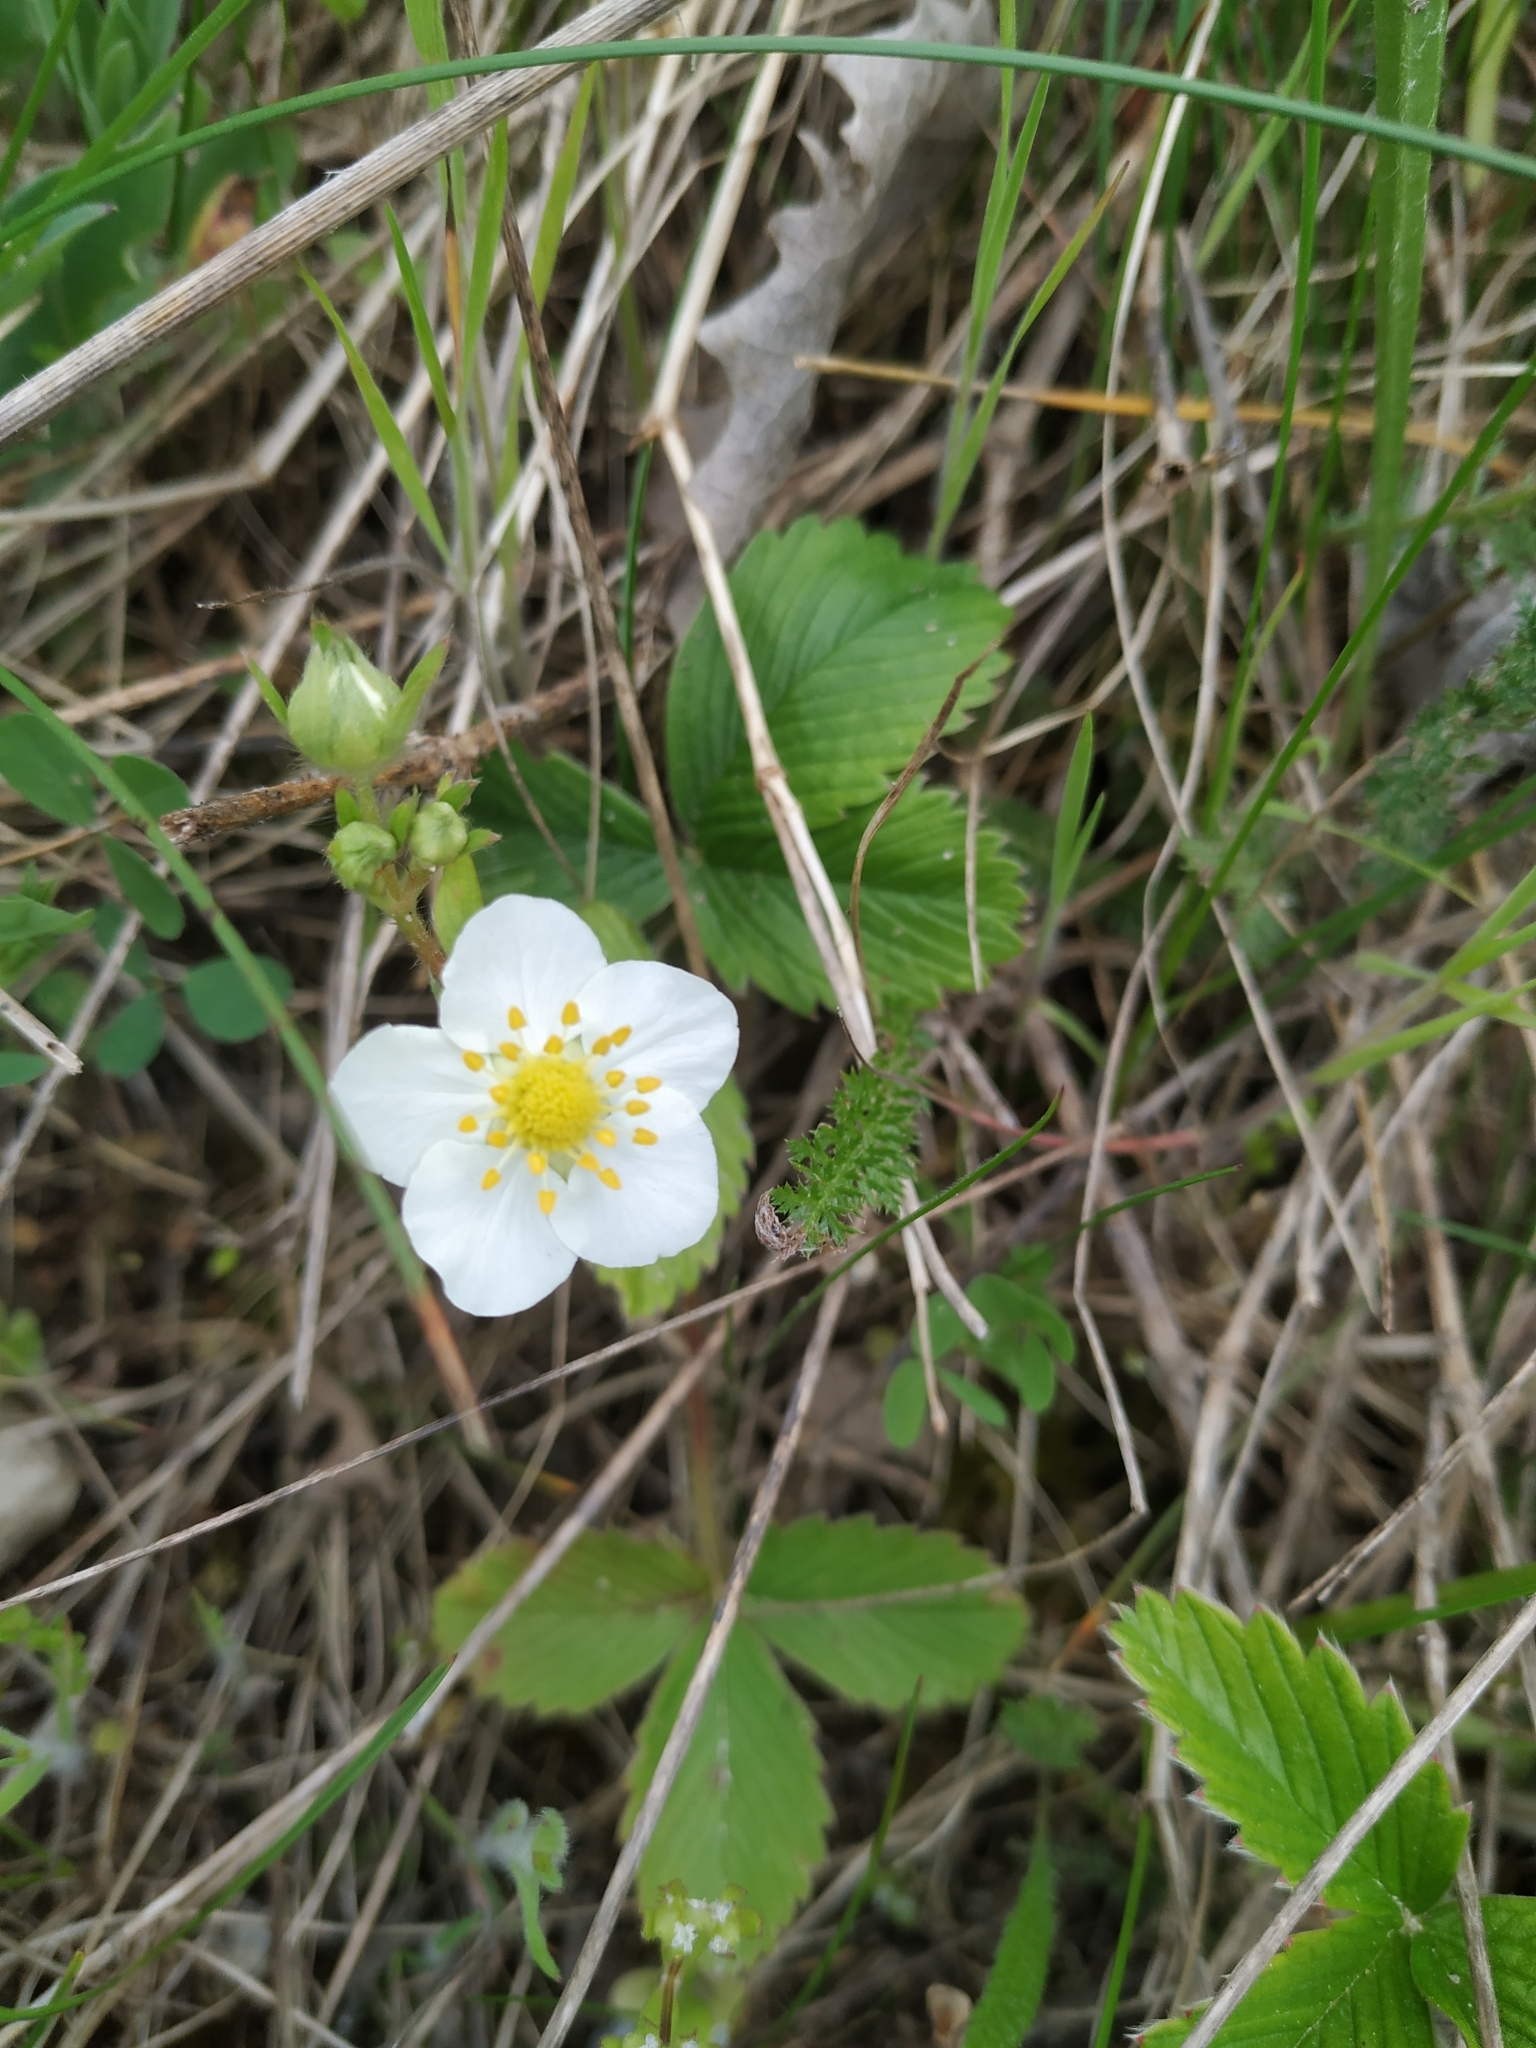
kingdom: Plantae
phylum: Tracheophyta
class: Magnoliopsida
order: Rosales
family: Rosaceae
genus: Fragaria
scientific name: Fragaria viridis
